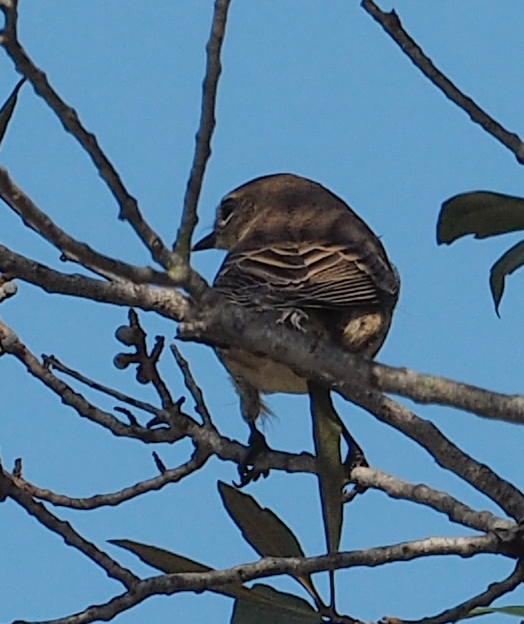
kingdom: Animalia
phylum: Chordata
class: Aves
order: Passeriformes
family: Parulidae
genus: Setophaga
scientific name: Setophaga coronata
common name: Myrtle warbler
